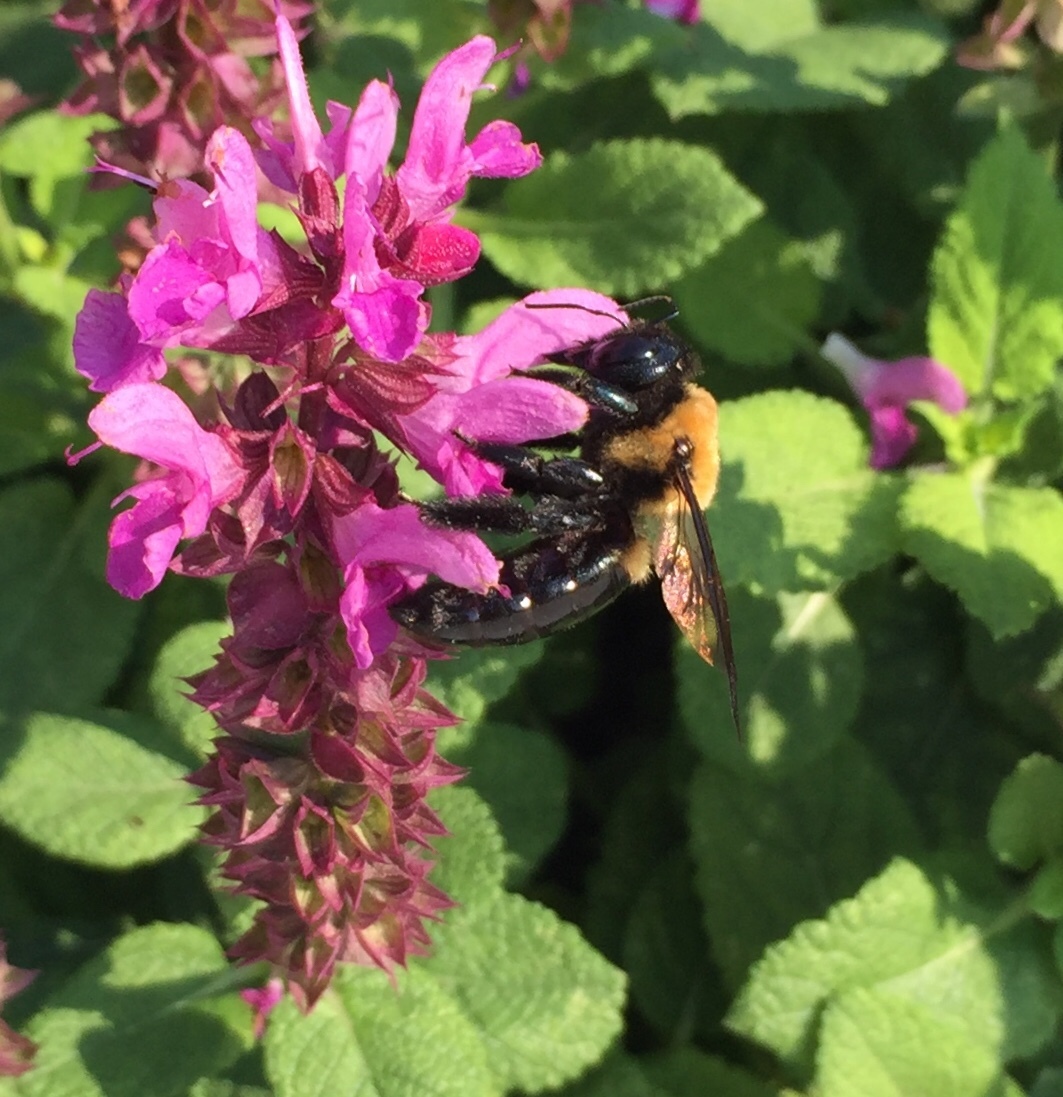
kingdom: Animalia
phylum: Arthropoda
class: Insecta
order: Hymenoptera
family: Apidae
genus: Xylocopa
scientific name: Xylocopa virginica
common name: Carpenter bee
